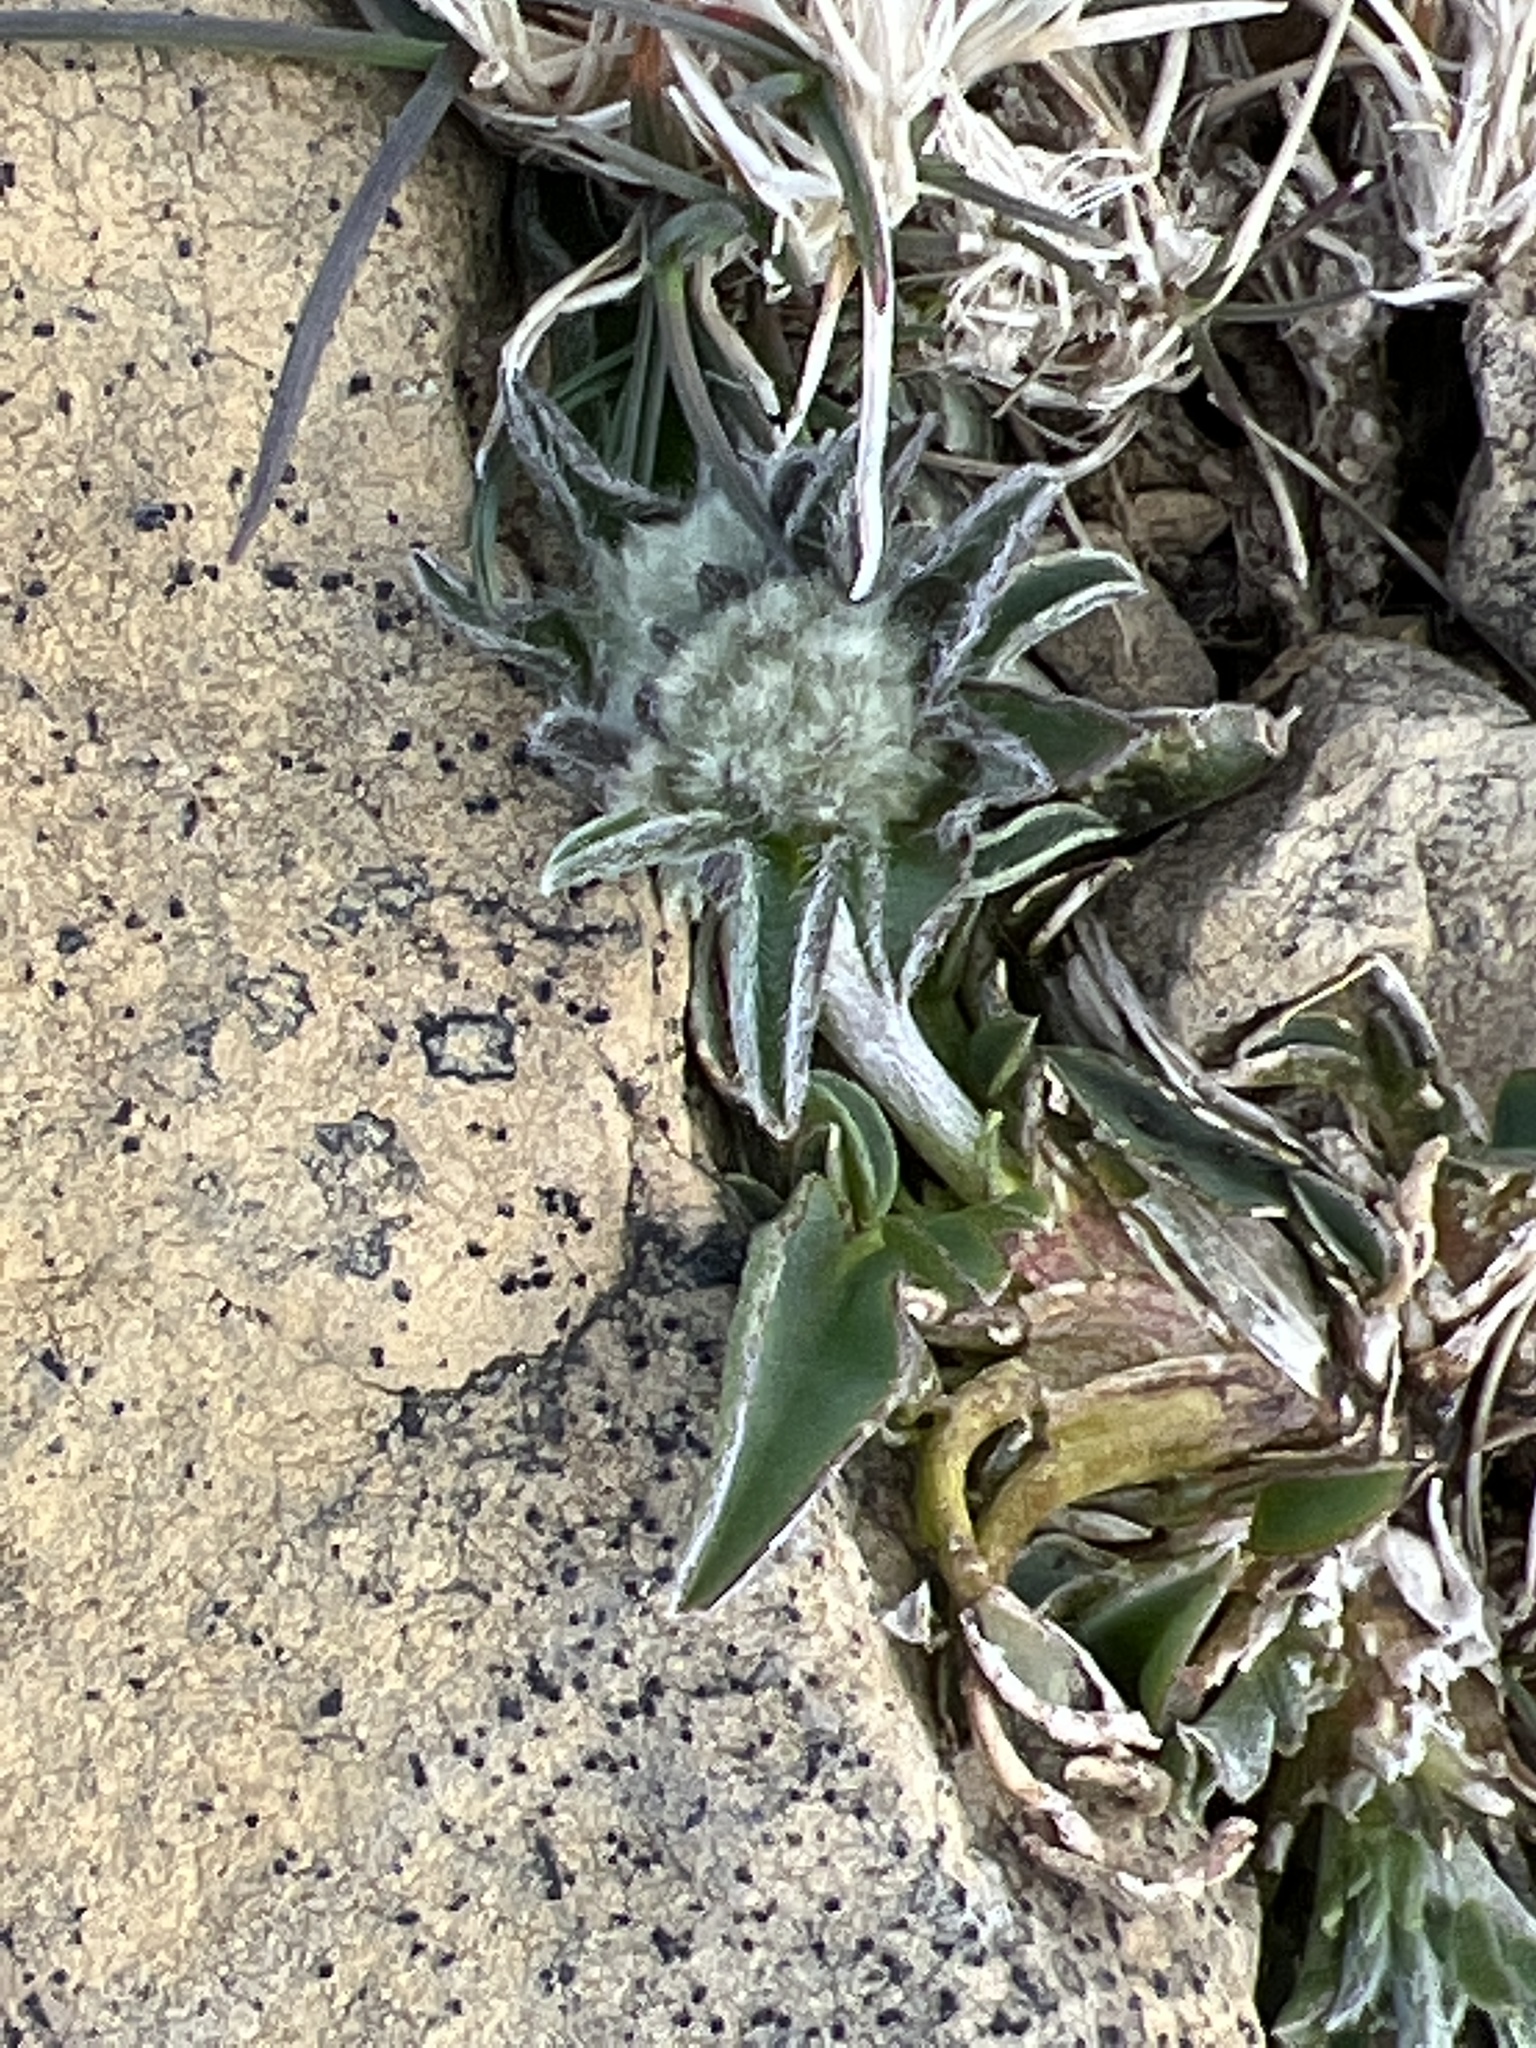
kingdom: Plantae
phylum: Tracheophyta
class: Magnoliopsida
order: Fabales
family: Fabaceae
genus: Anthyllis
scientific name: Anthyllis vulneraria
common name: Kidney vetch
